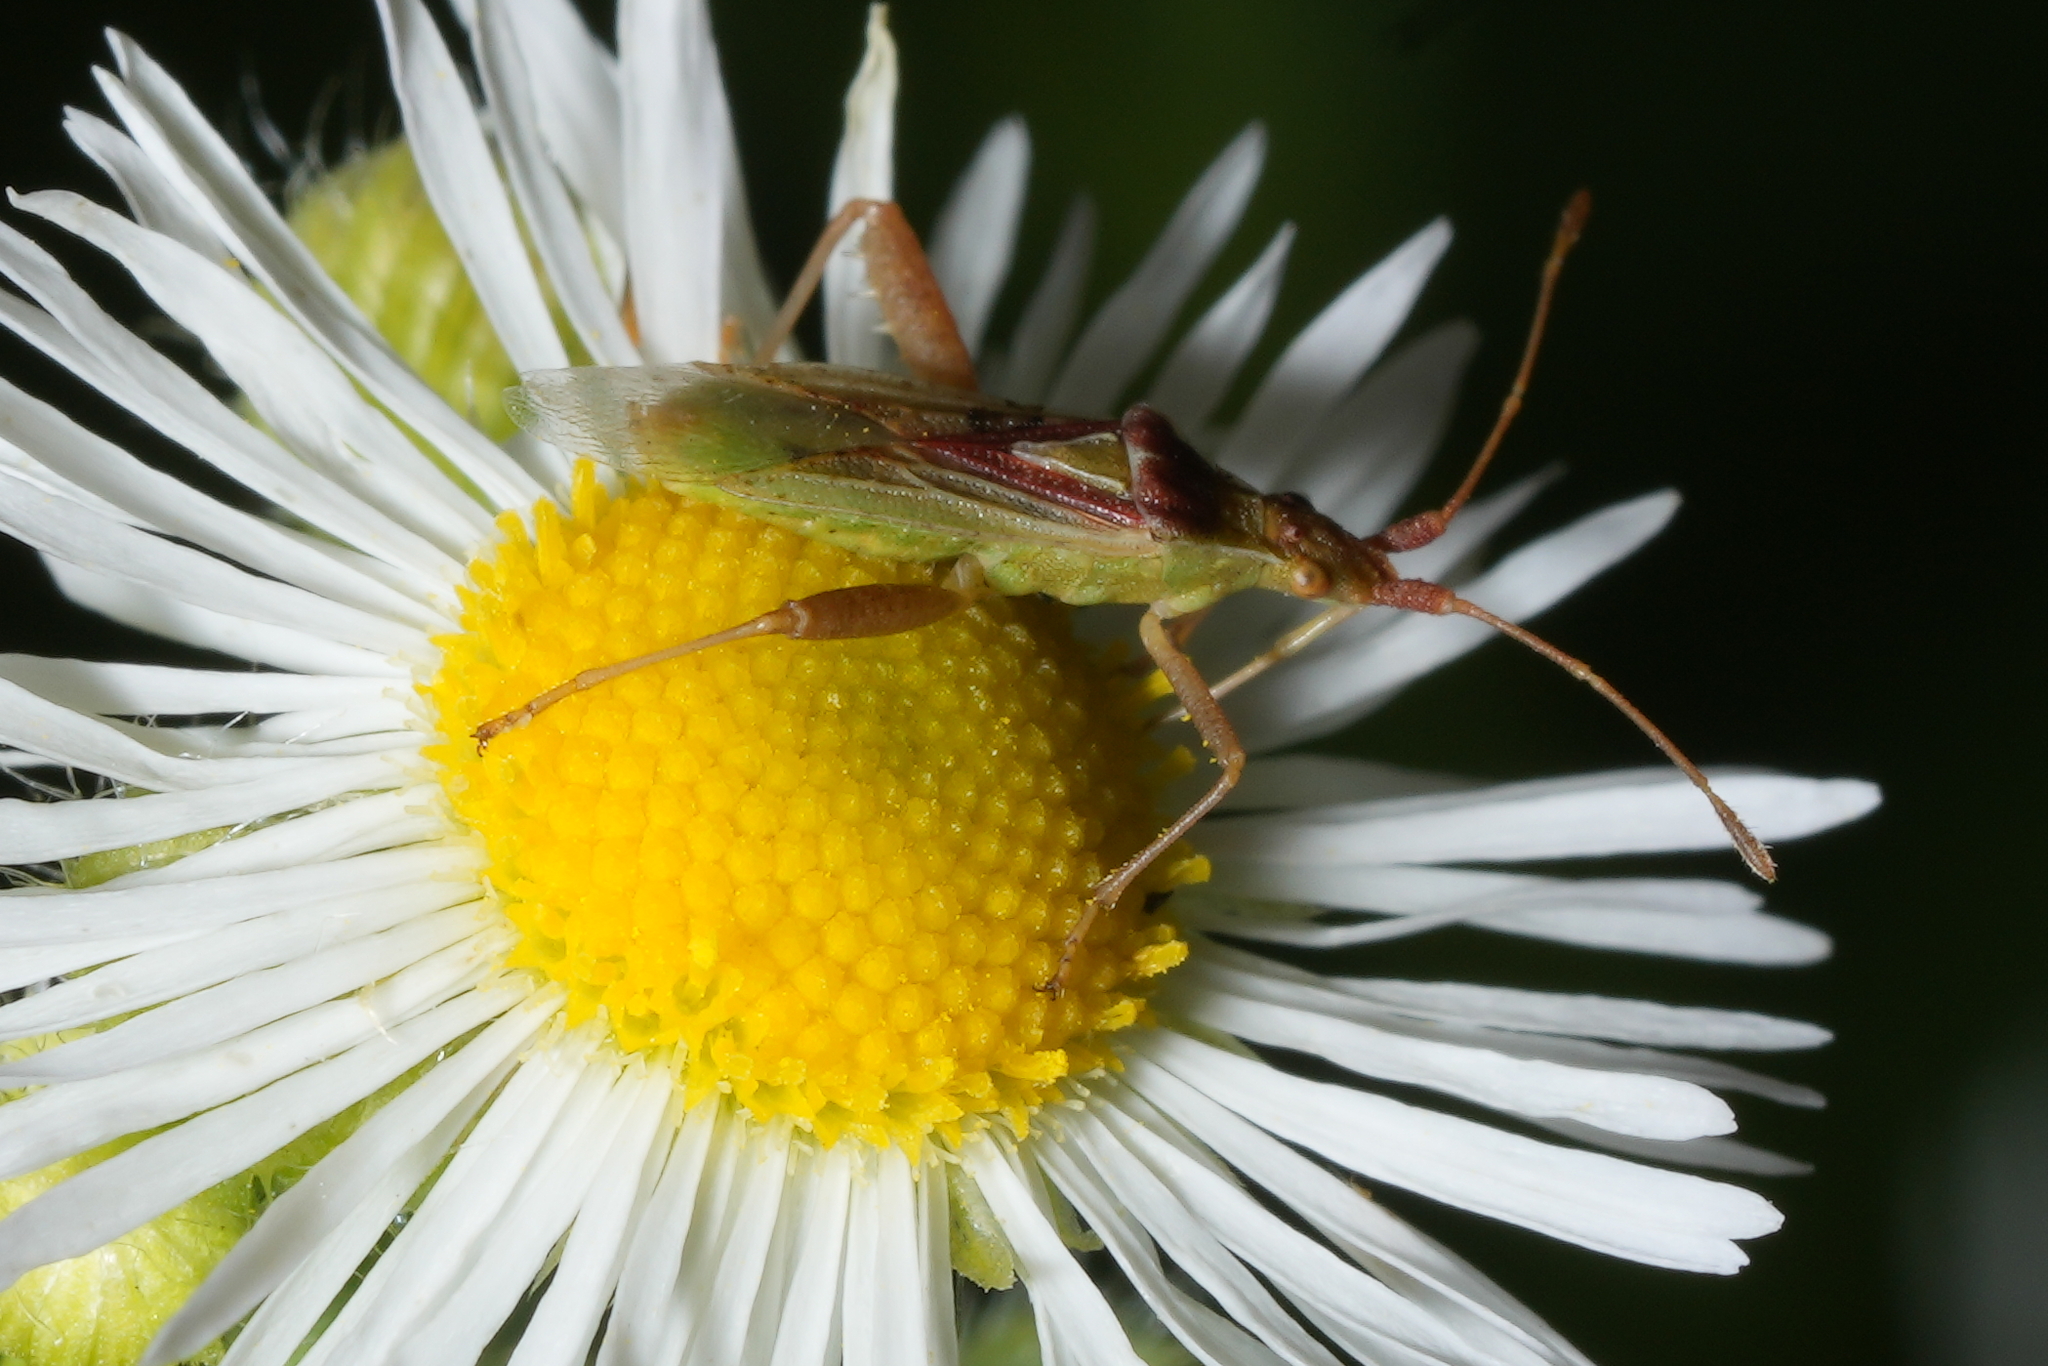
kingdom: Animalia
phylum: Arthropoda
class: Insecta
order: Hemiptera
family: Rhopalidae
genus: Harmostes
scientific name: Harmostes reflexulus
